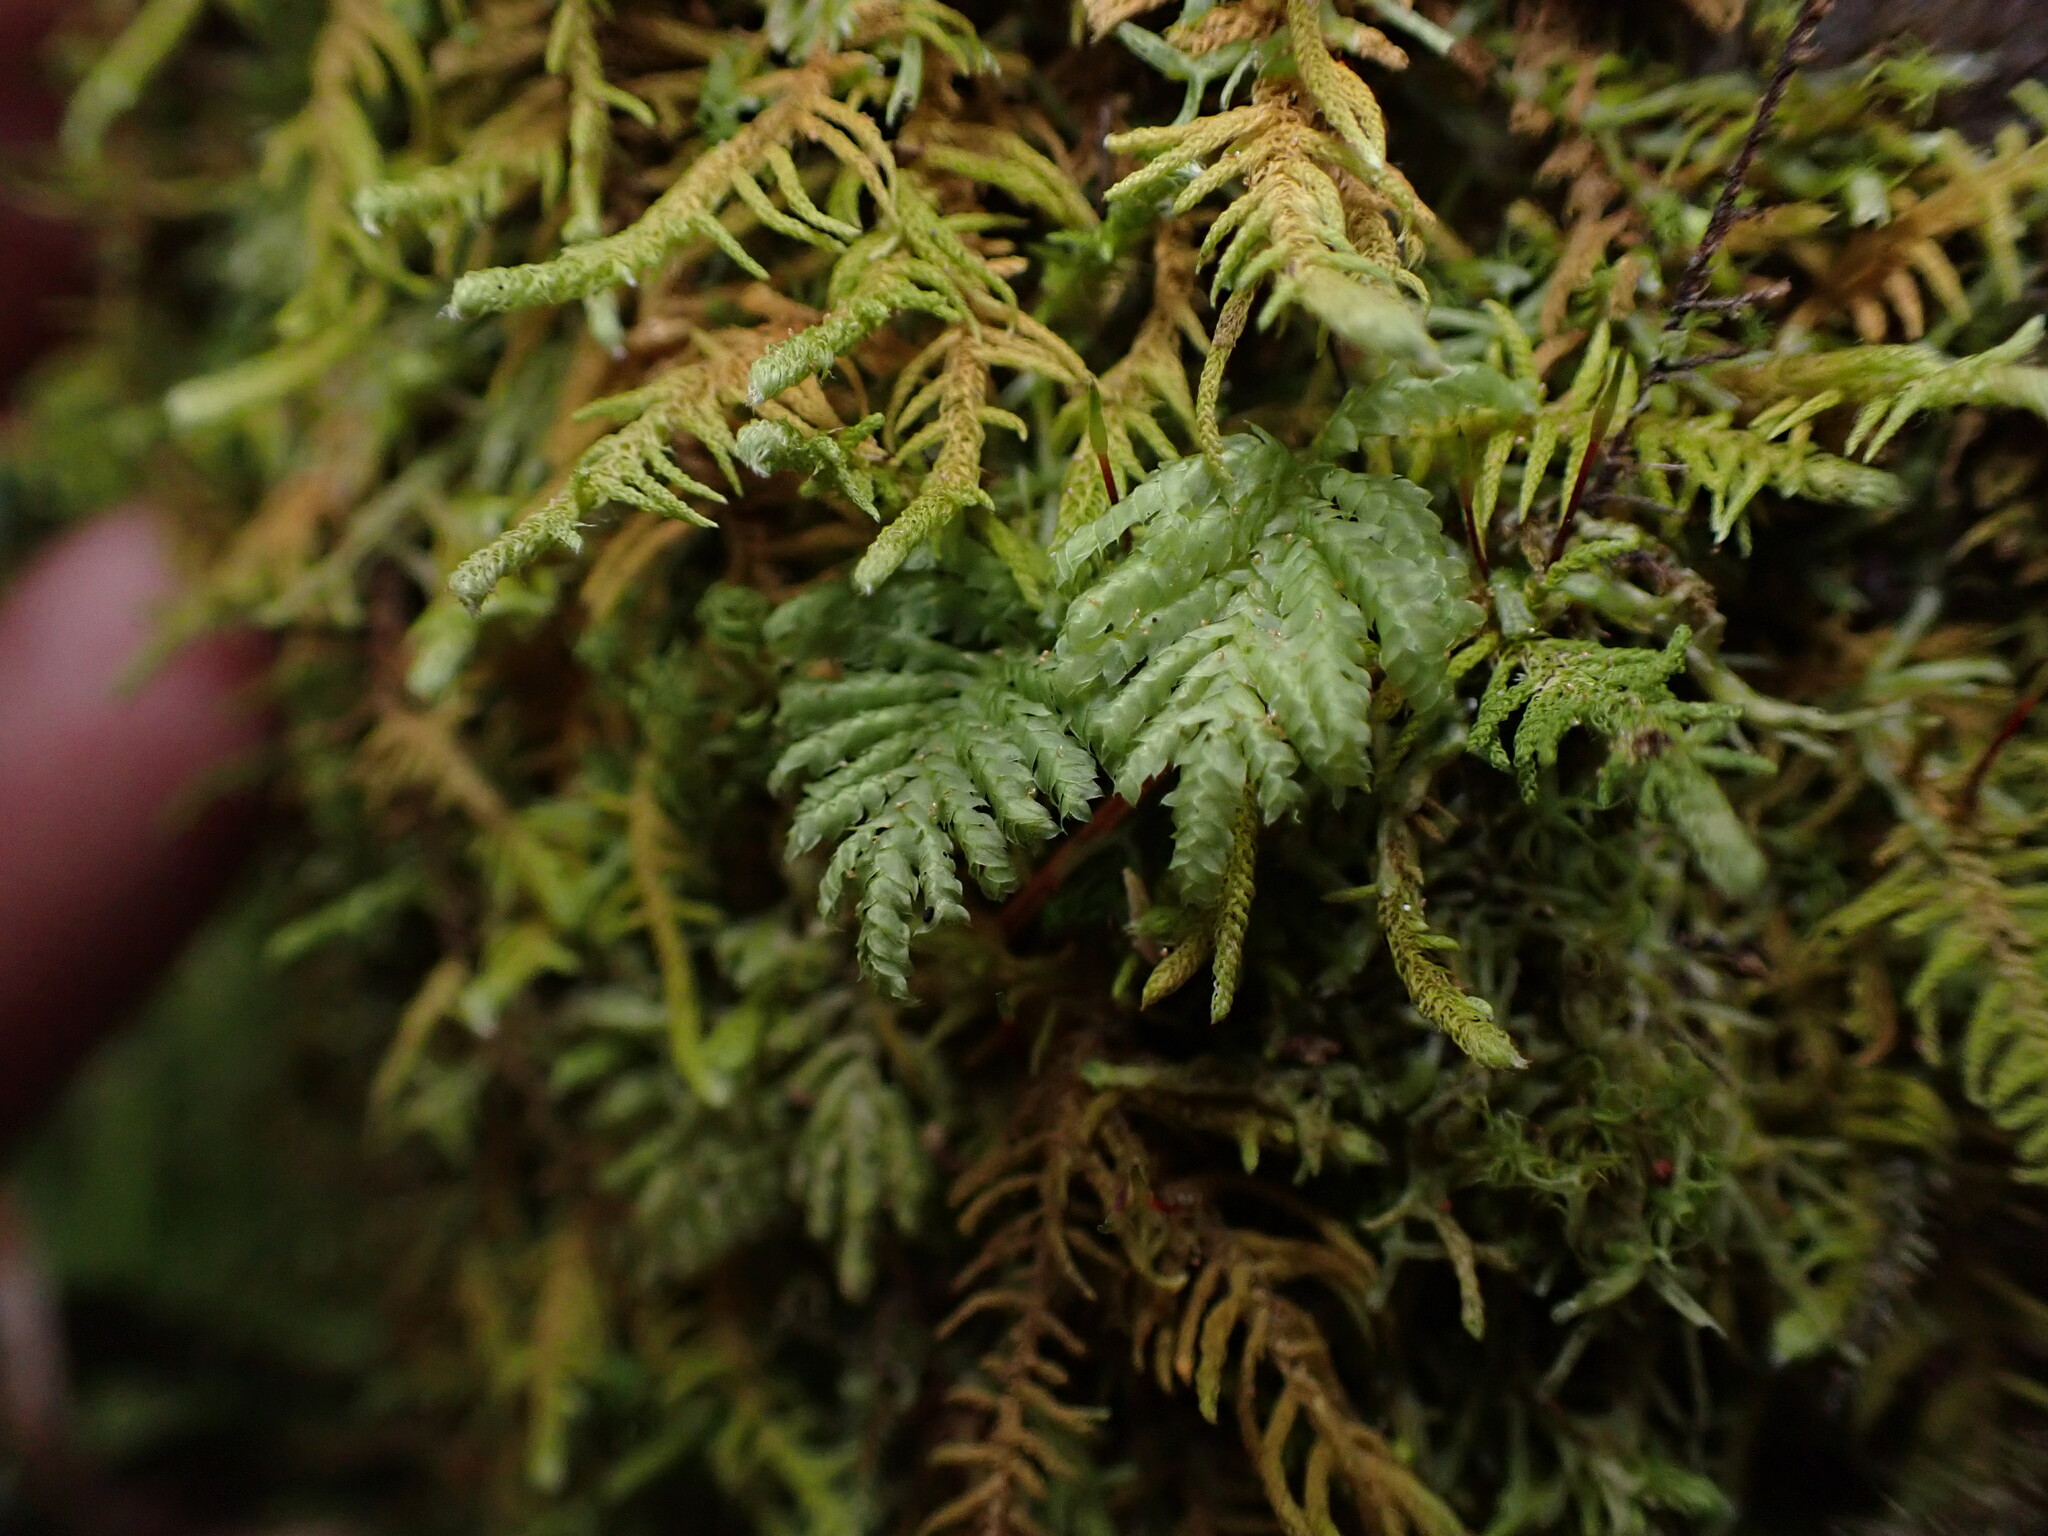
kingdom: Plantae
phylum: Bryophyta
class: Bryopsida
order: Hypopterygiales
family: Hypopterygiaceae
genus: Hypopterygium
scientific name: Hypopterygium flavolimbatum
